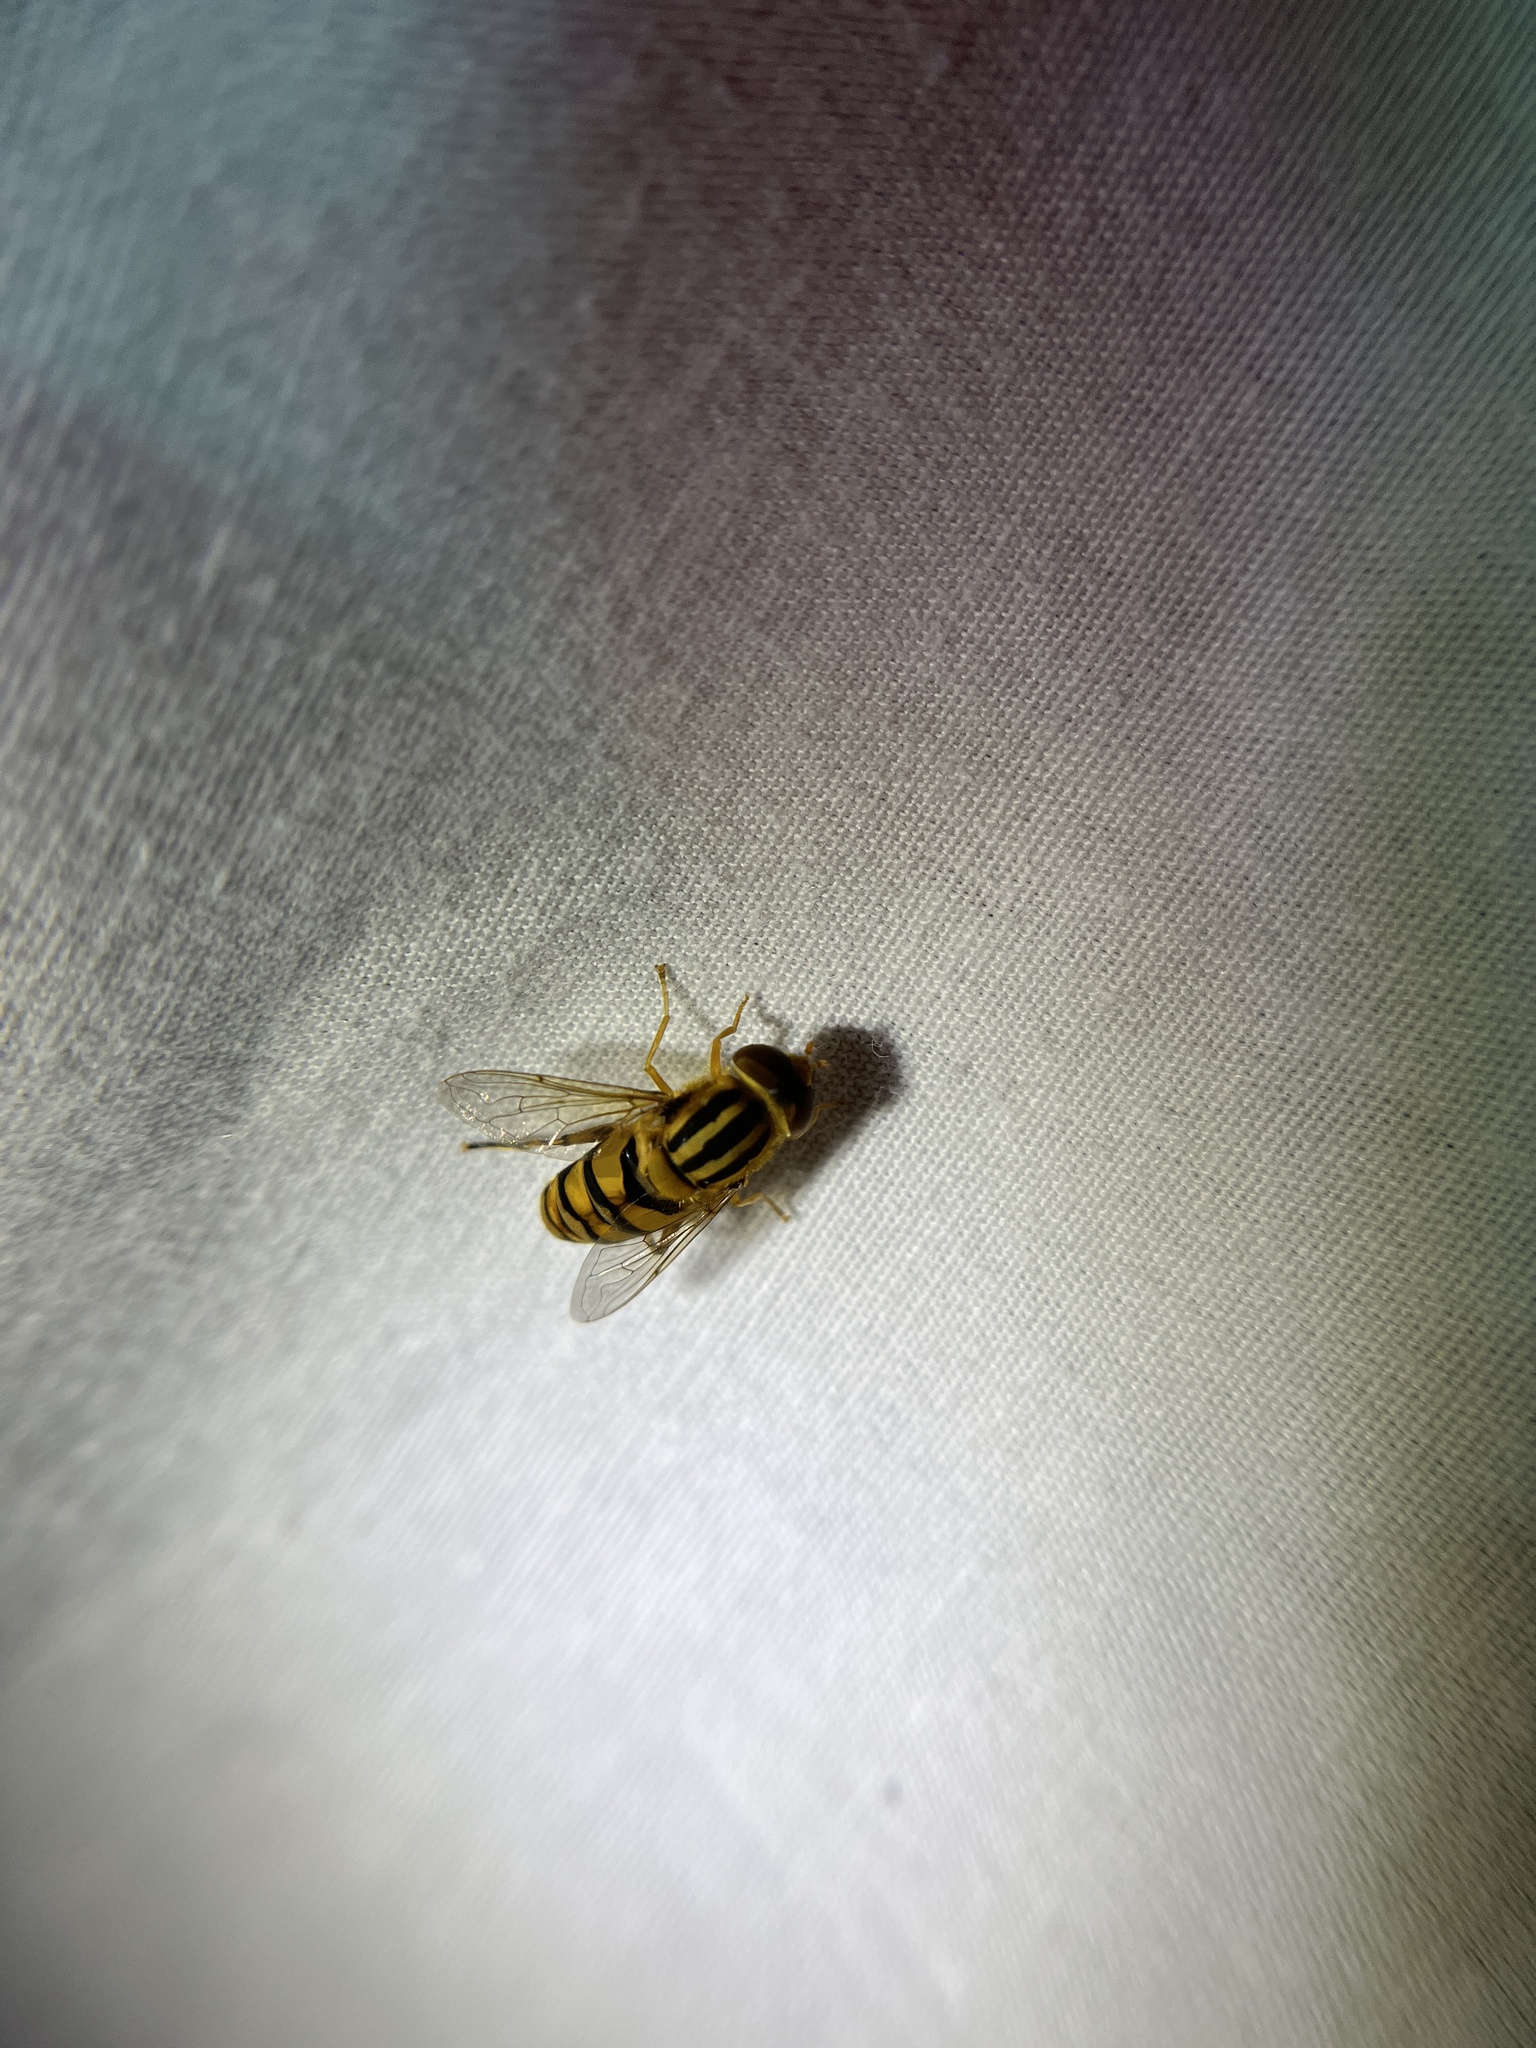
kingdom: Animalia
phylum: Arthropoda
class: Insecta
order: Diptera
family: Syrphidae
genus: Parhelophilus
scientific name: Parhelophilus integer
